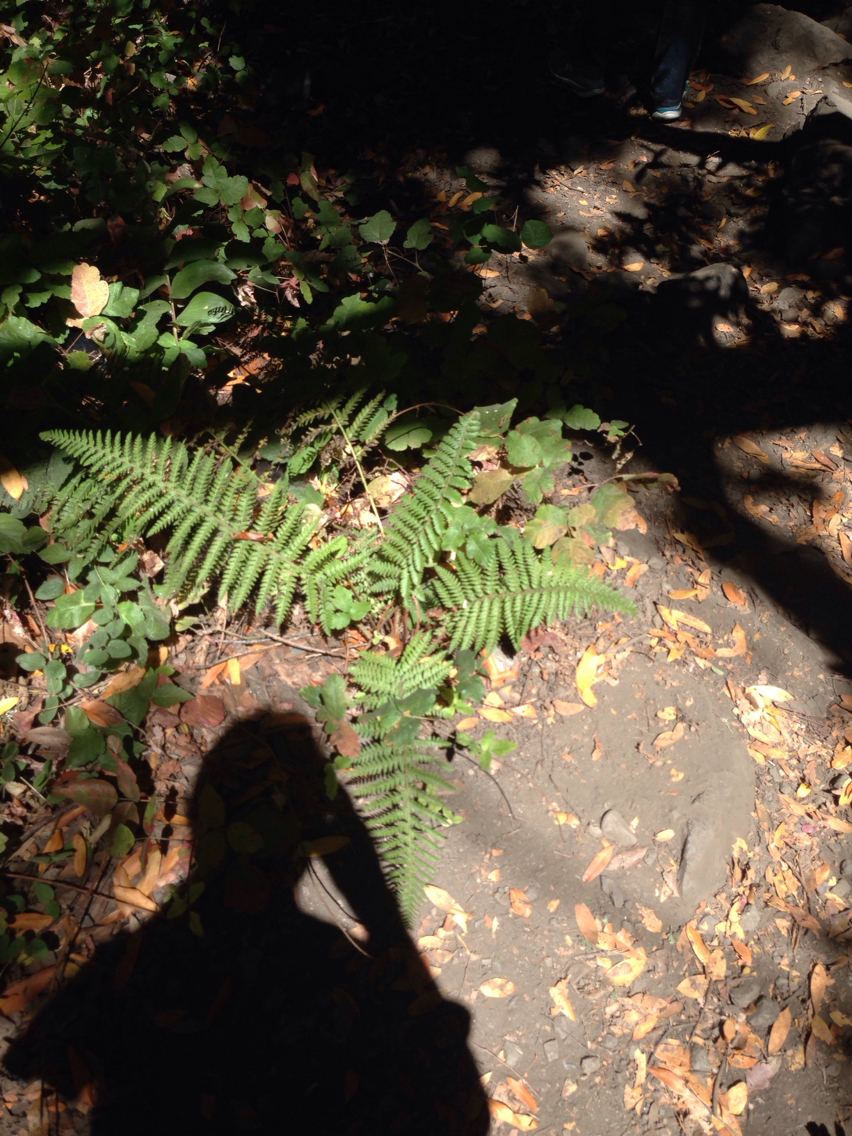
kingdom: Plantae
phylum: Tracheophyta
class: Polypodiopsida
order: Polypodiales
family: Dryopteridaceae
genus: Dryopteris
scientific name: Dryopteris arguta
